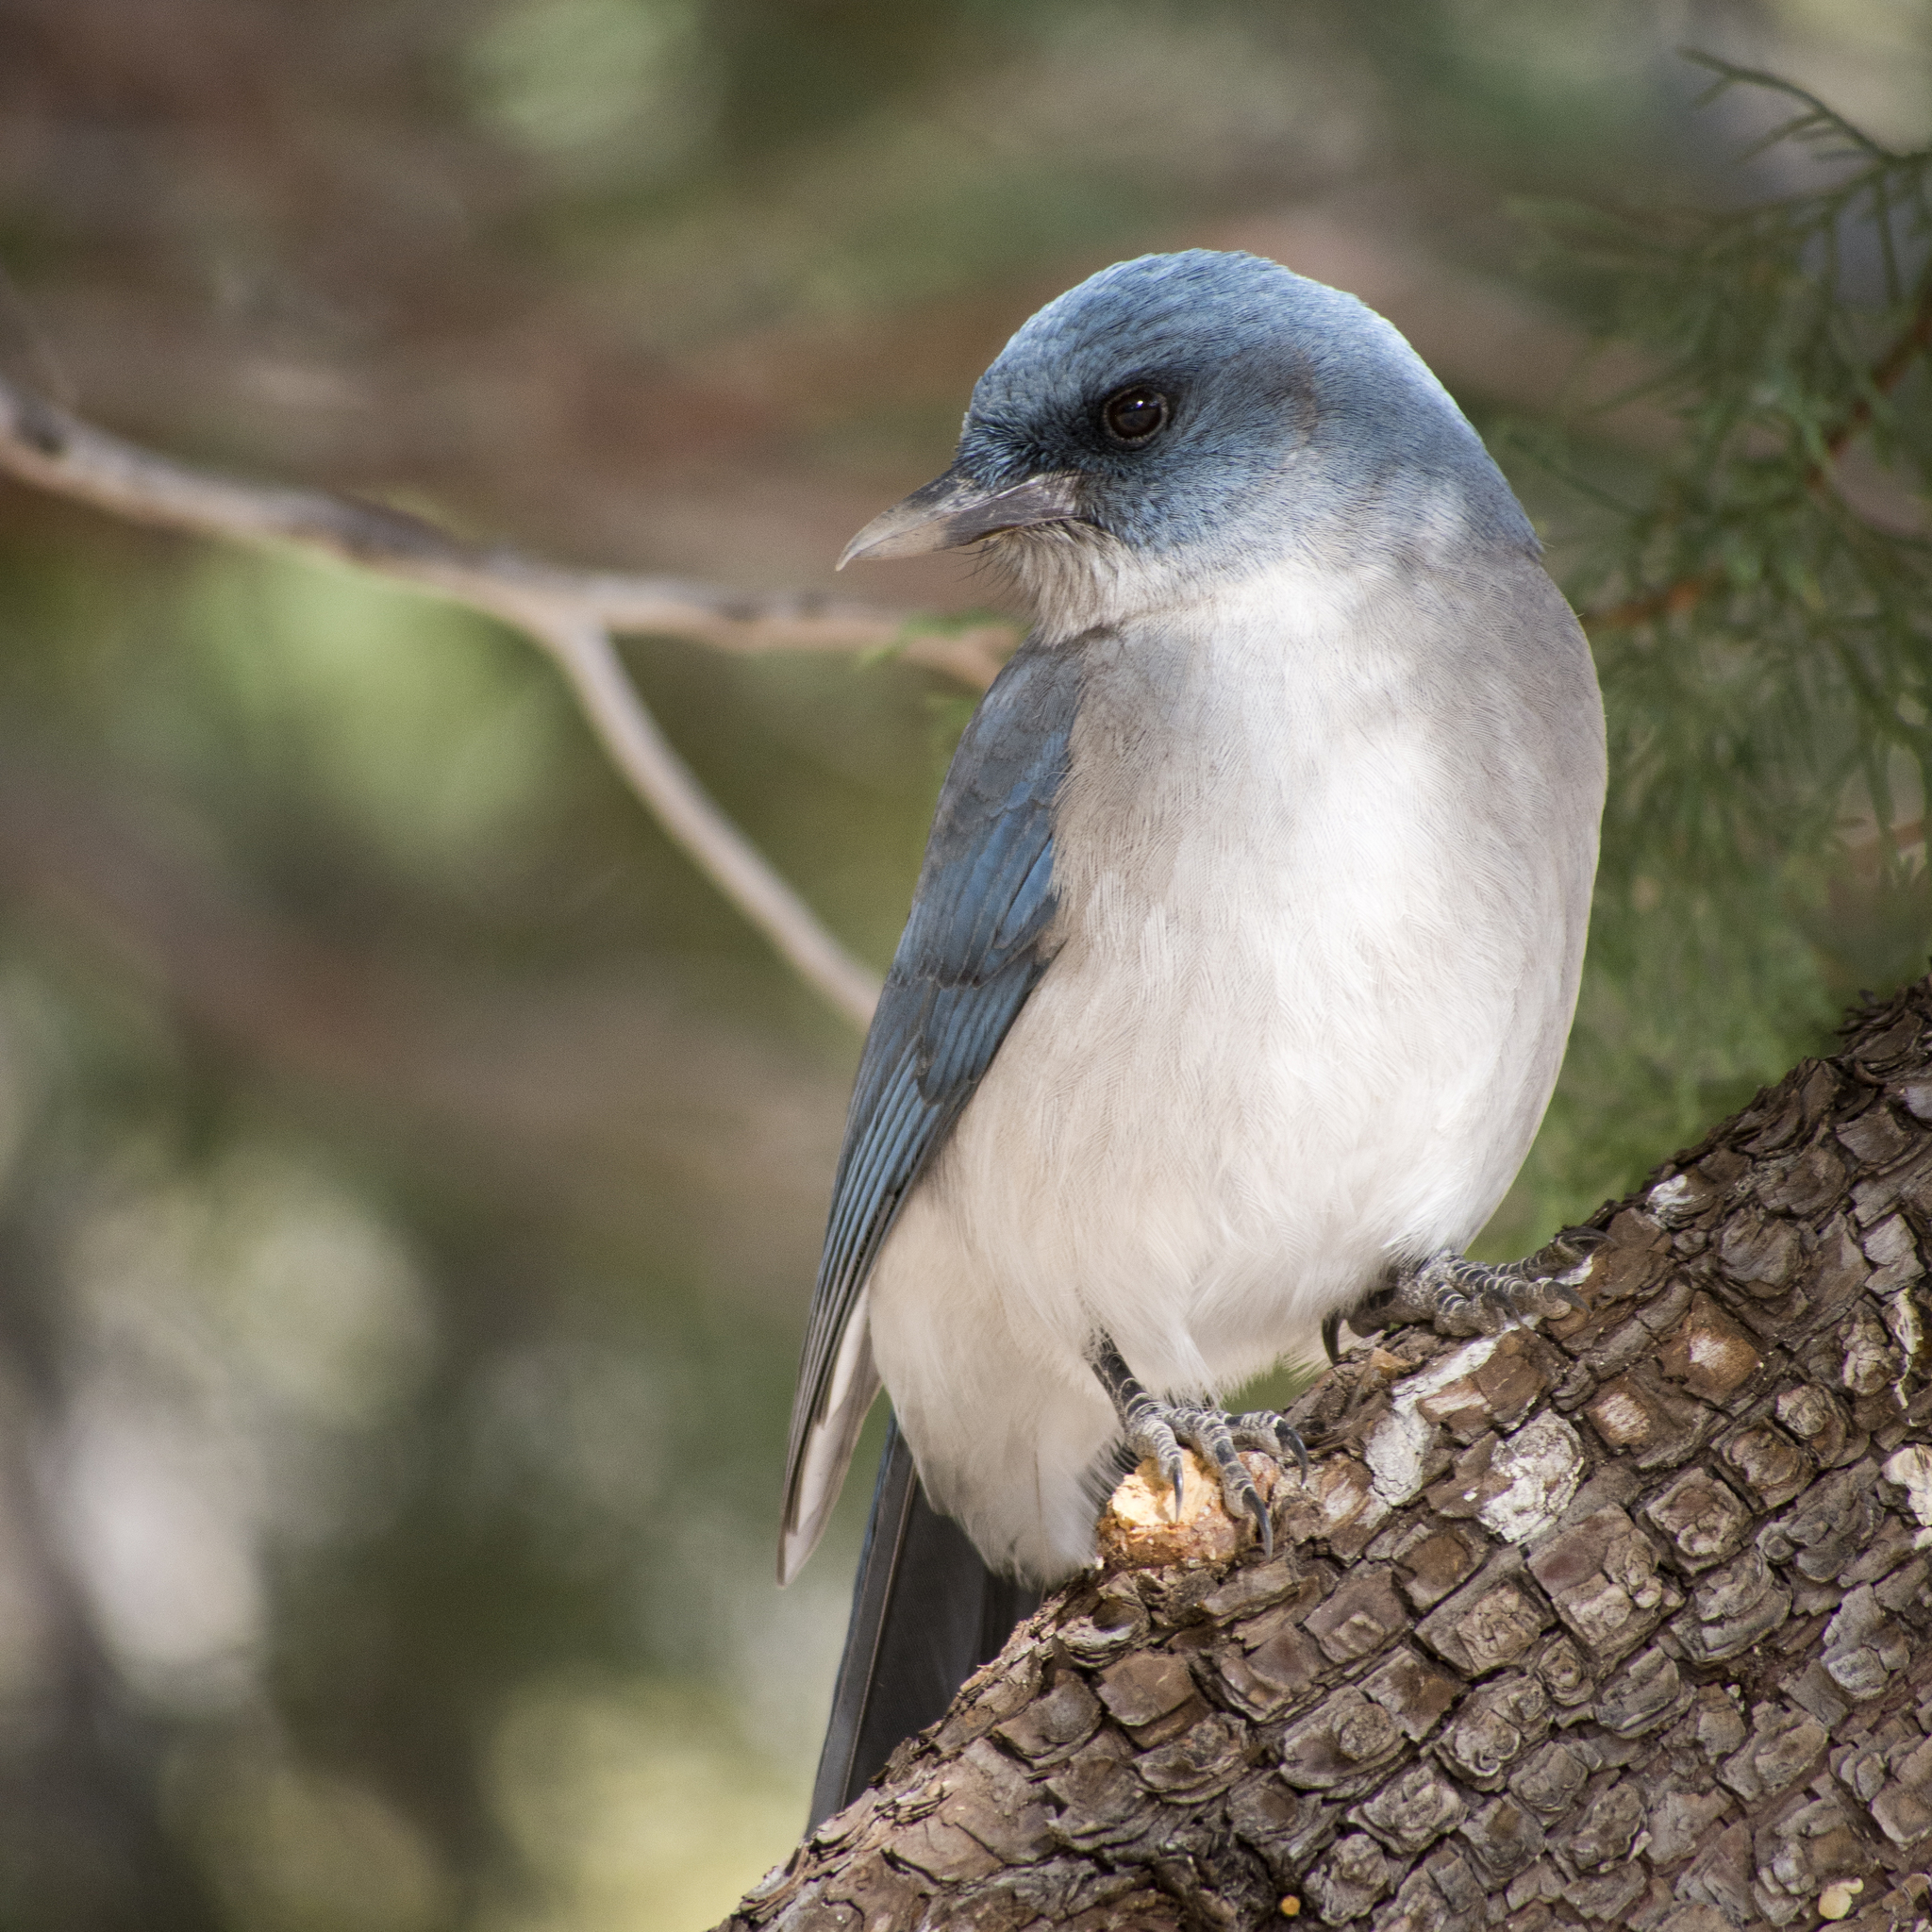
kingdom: Animalia
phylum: Chordata
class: Aves
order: Passeriformes
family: Corvidae
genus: Aphelocoma
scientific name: Aphelocoma wollweberi
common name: Mexican jay
